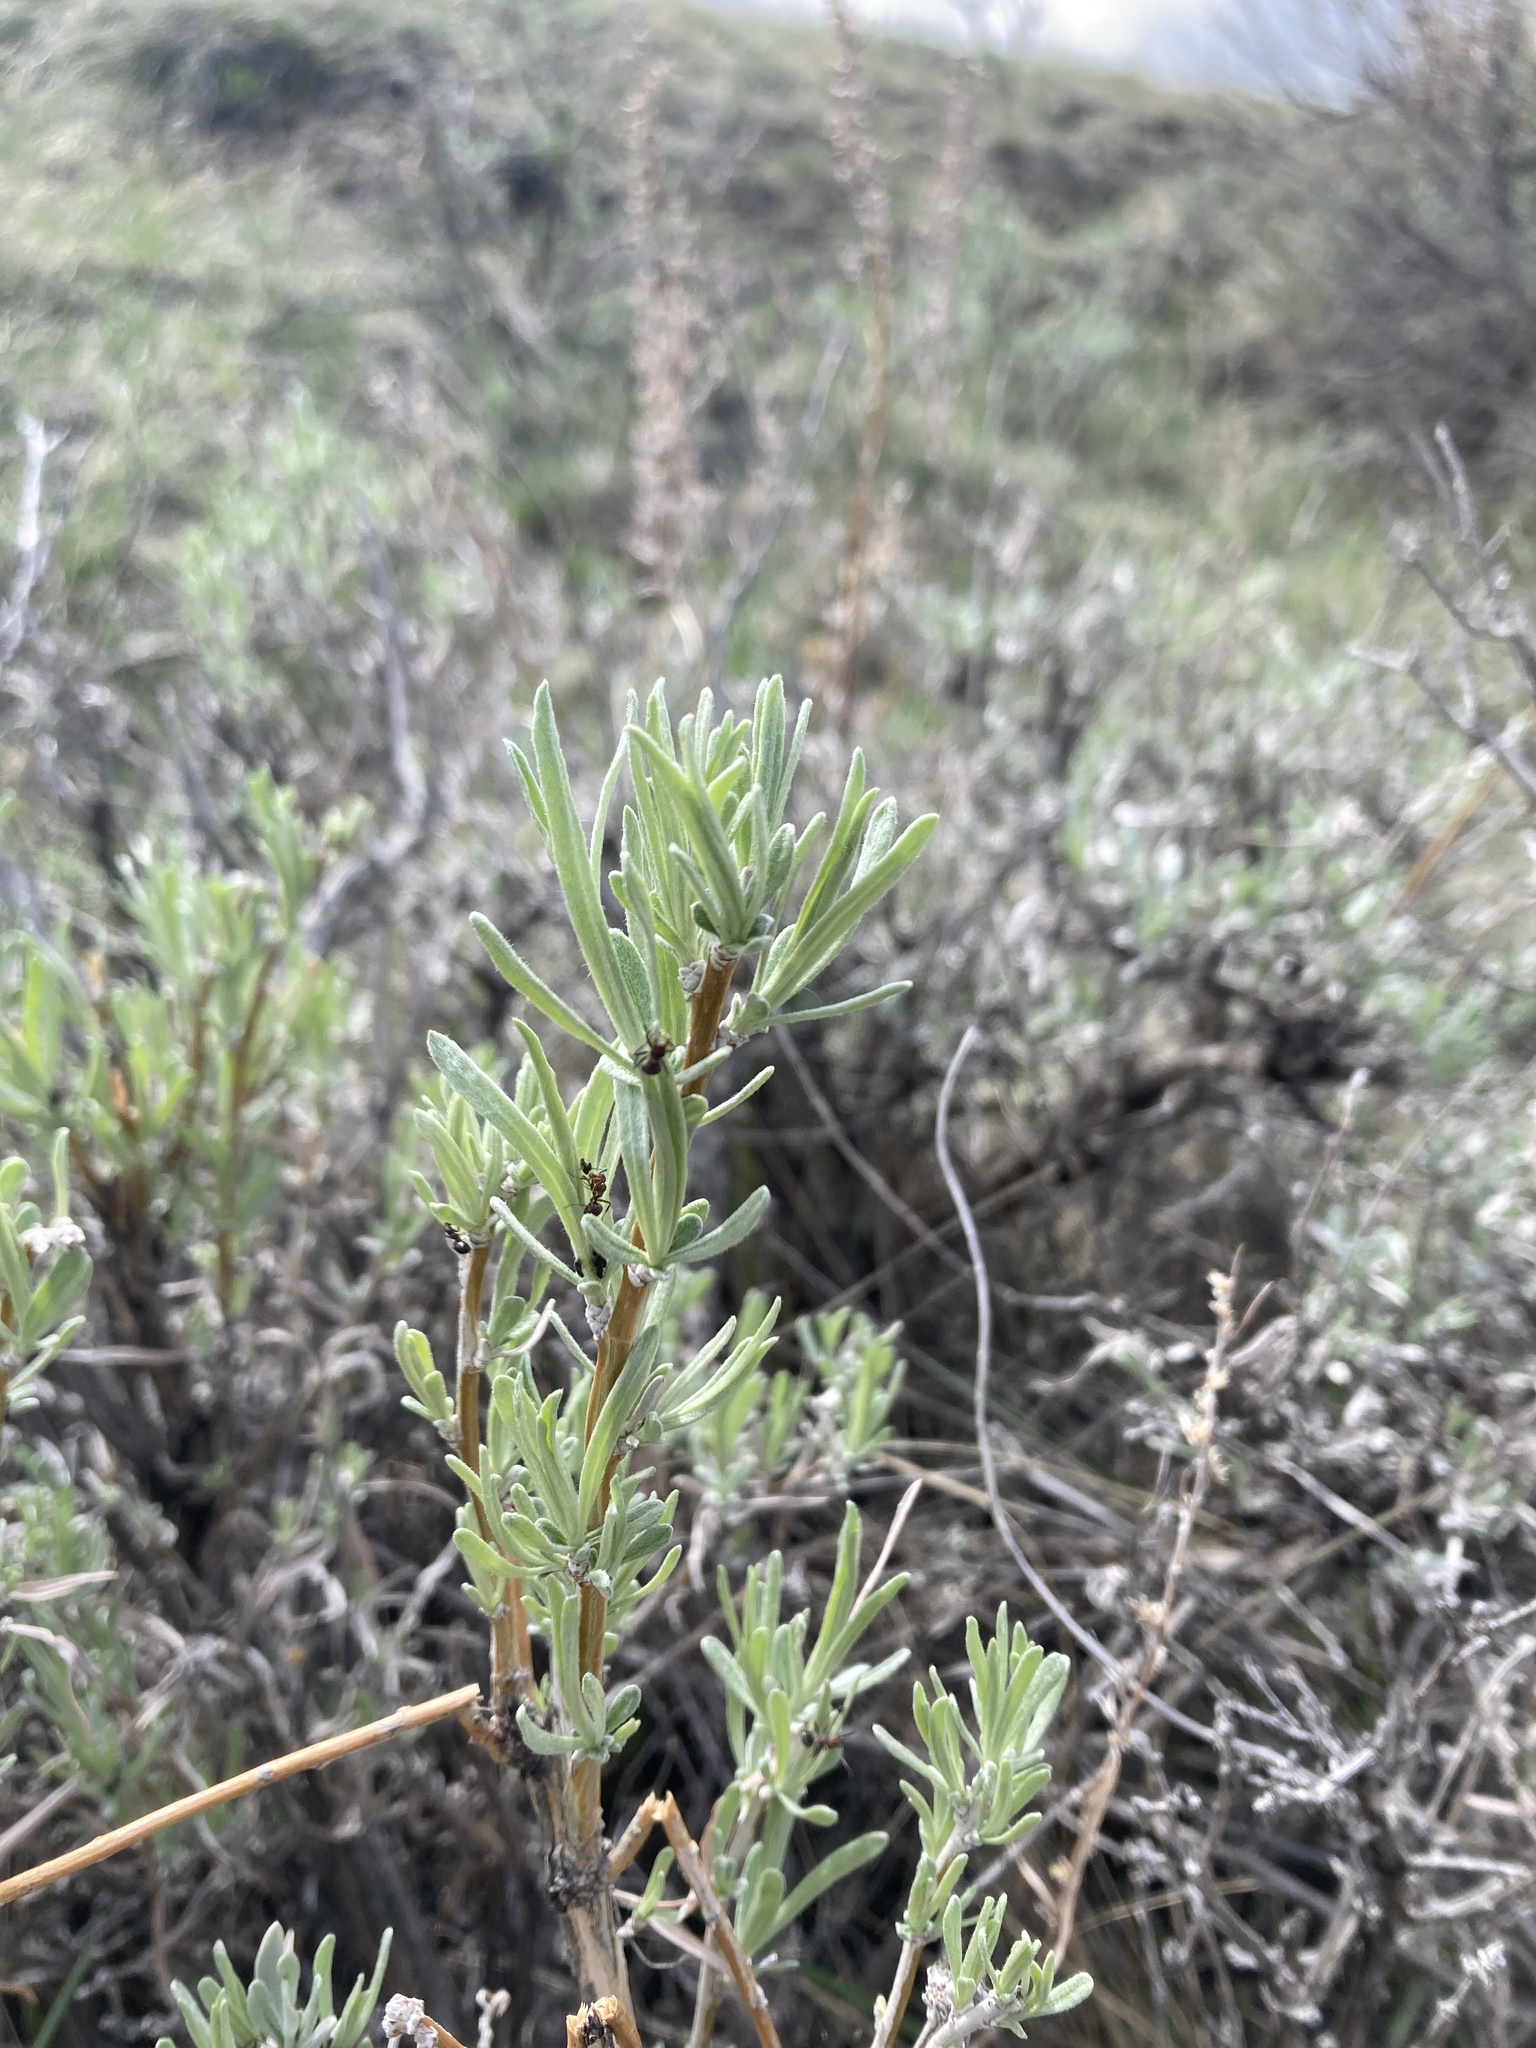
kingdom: Plantae
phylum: Tracheophyta
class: Magnoliopsida
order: Asterales
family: Asteraceae
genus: Artemisia
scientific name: Artemisia cana
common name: Silver sagebrush
